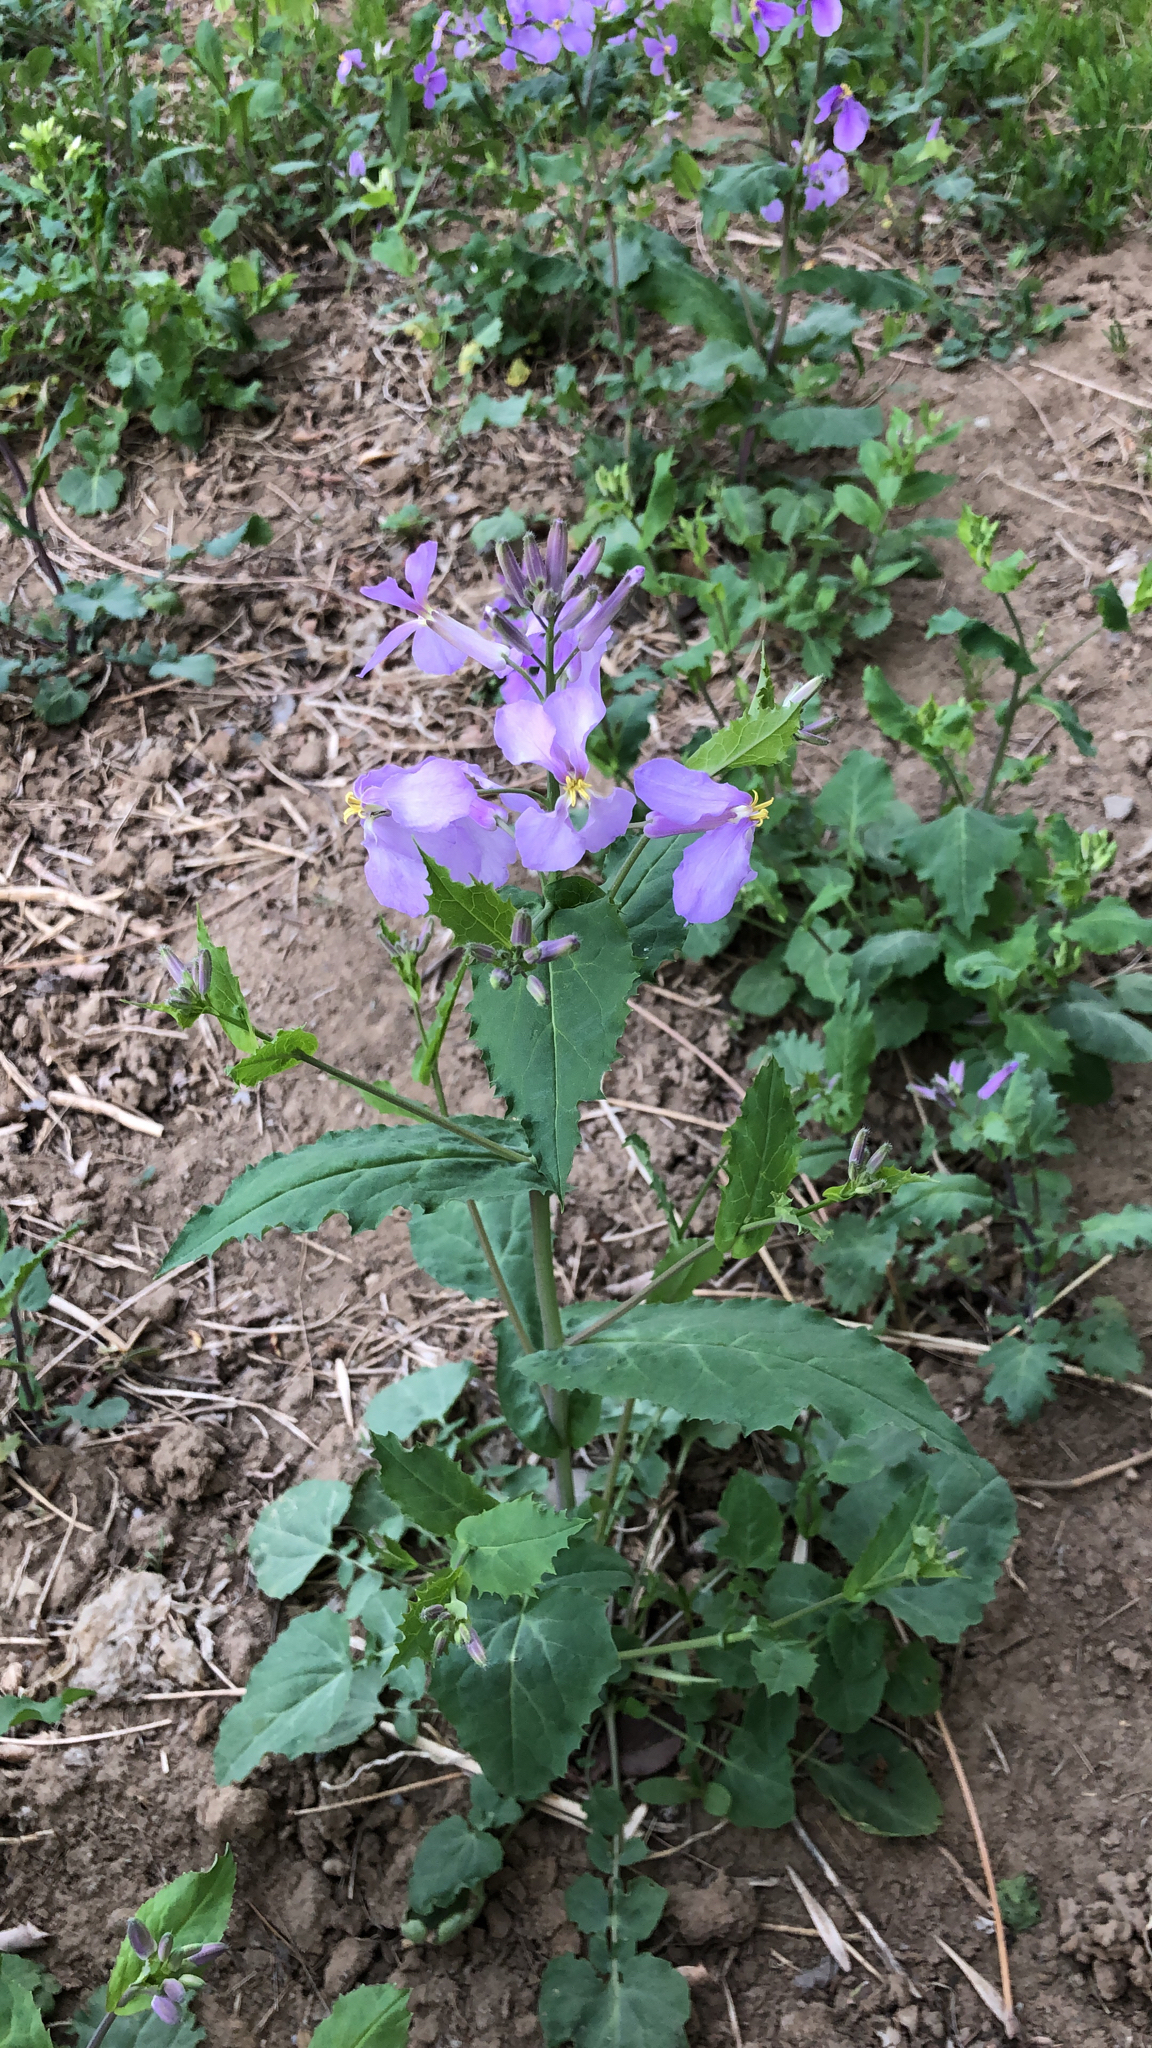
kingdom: Plantae
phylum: Tracheophyta
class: Magnoliopsida
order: Brassicales
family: Brassicaceae
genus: Orychophragmus
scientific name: Orychophragmus violaceus
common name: Mustard
